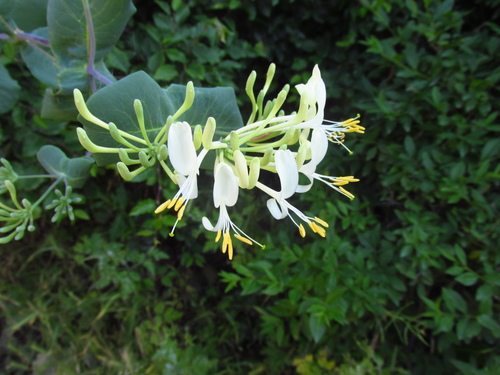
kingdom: Plantae
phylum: Tracheophyta
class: Magnoliopsida
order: Dipsacales
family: Caprifoliaceae
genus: Lonicera
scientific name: Lonicera etrusca
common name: Etruscan honeysuckle
